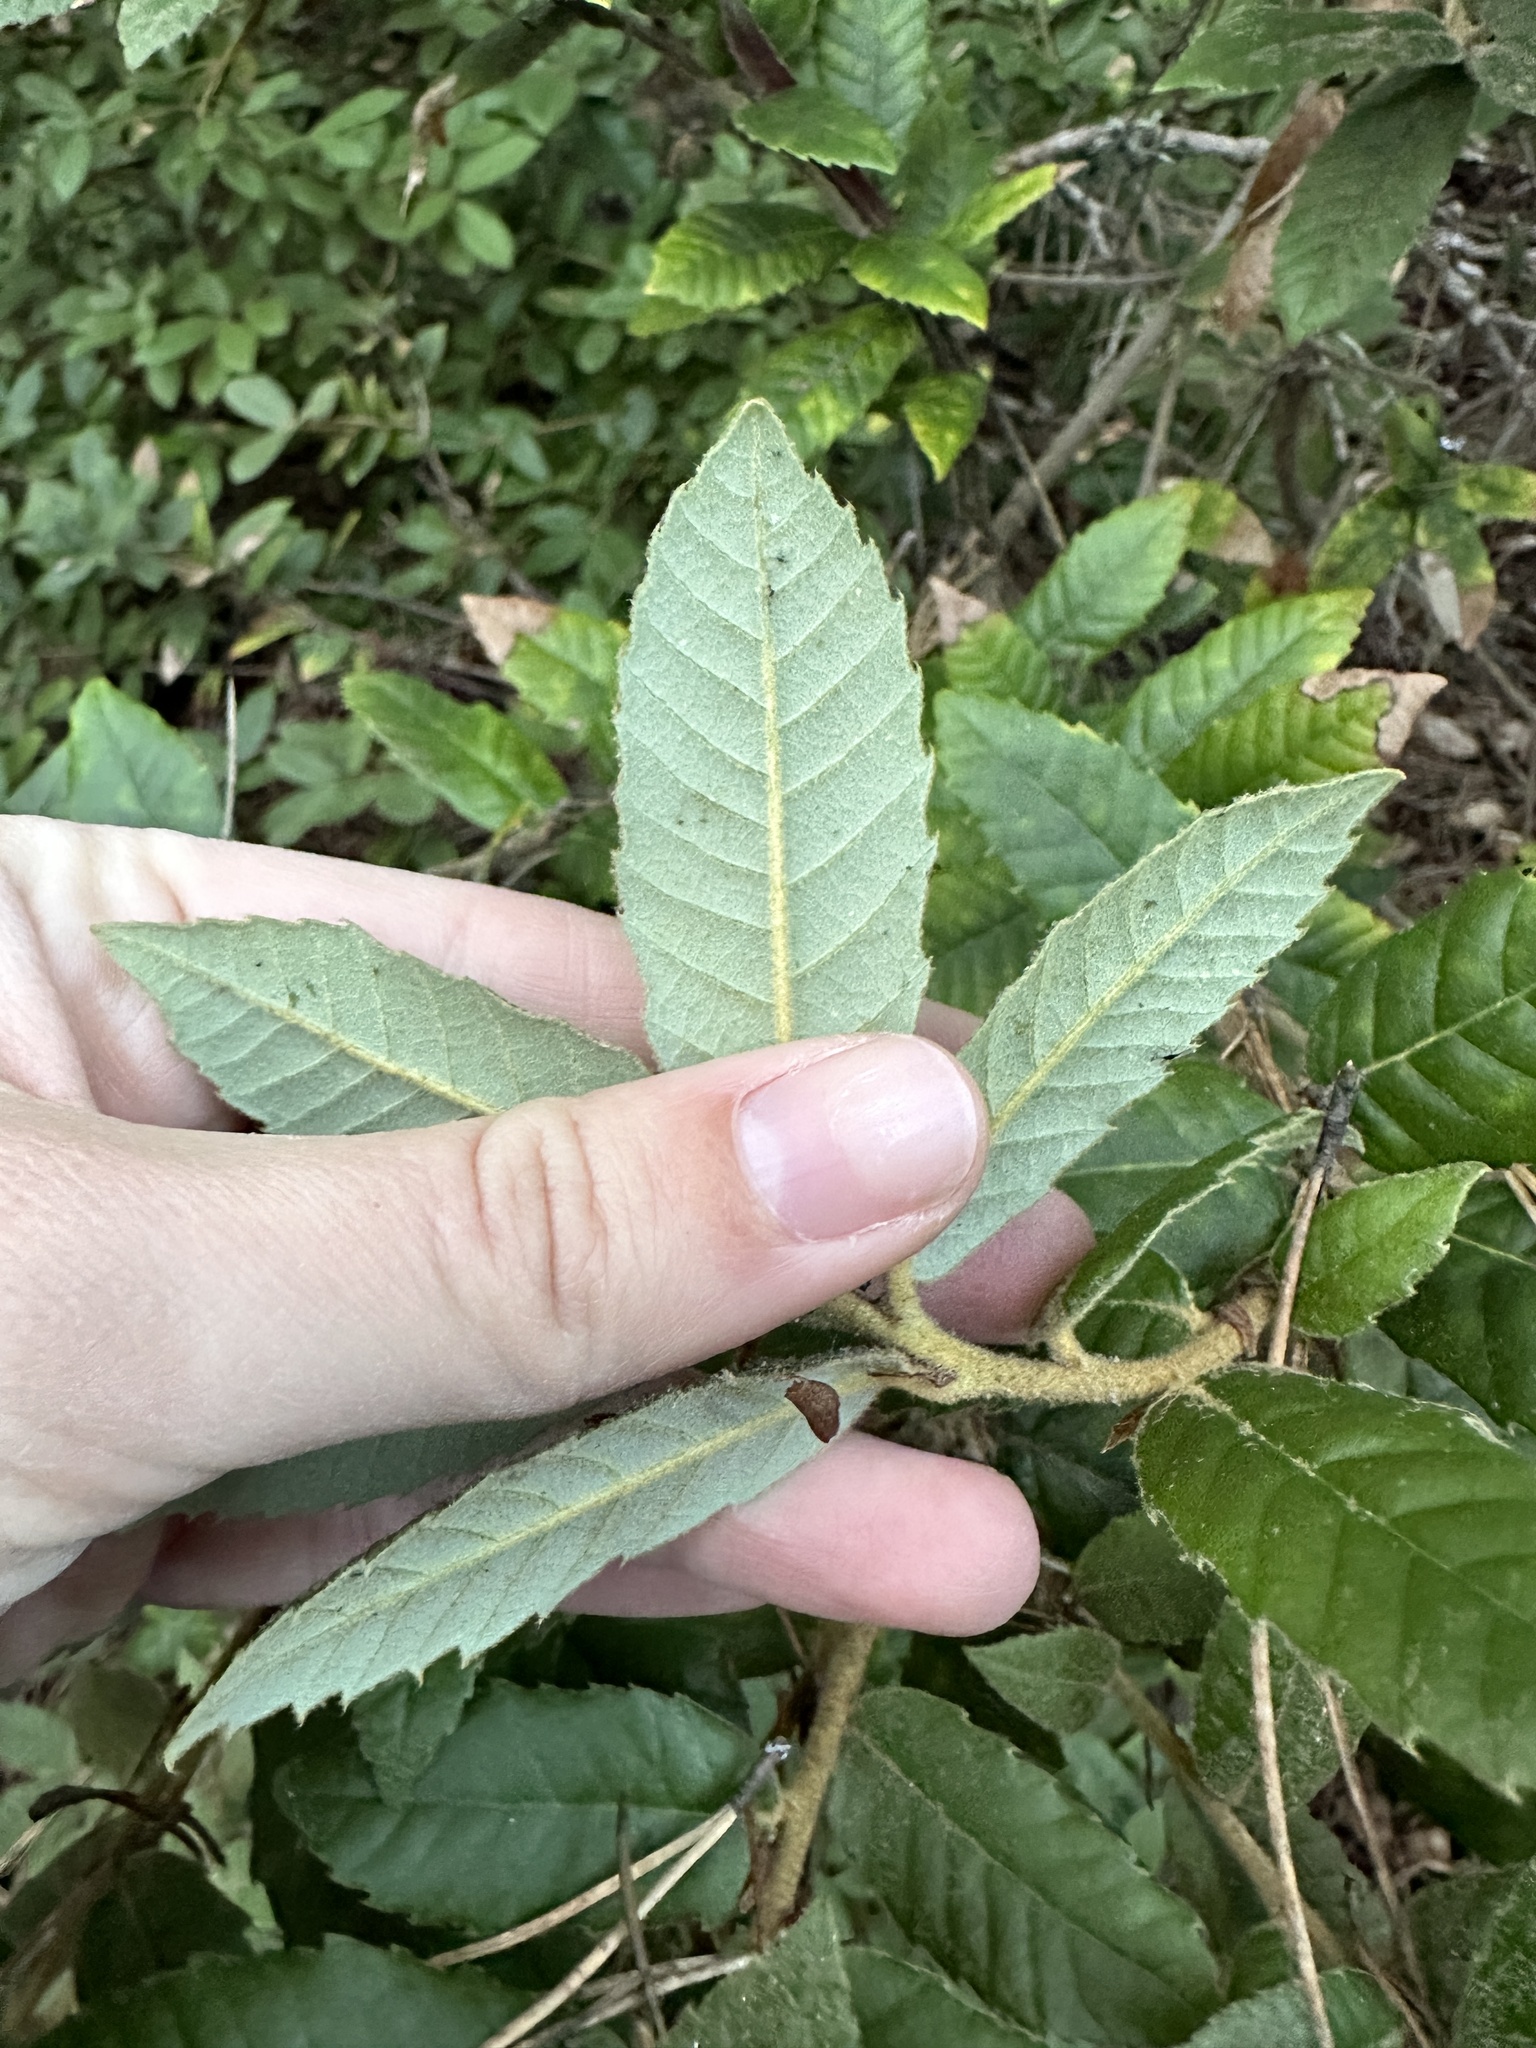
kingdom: Plantae
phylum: Tracheophyta
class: Magnoliopsida
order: Fagales
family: Fagaceae
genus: Notholithocarpus
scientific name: Notholithocarpus densiflorus
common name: Tan bark oak
